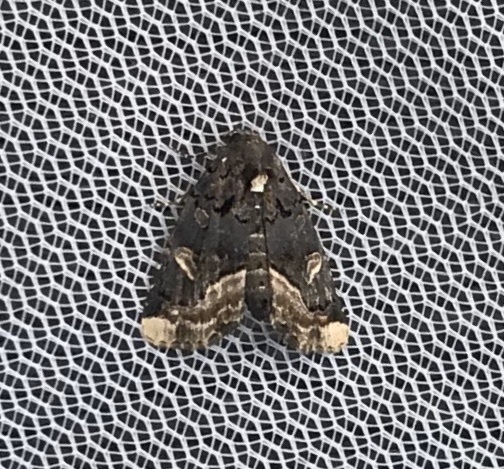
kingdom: Animalia
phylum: Arthropoda
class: Insecta
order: Lepidoptera
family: Noctuidae
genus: Homophoberia
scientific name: Homophoberia apicosa
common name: Black wedge-spot
